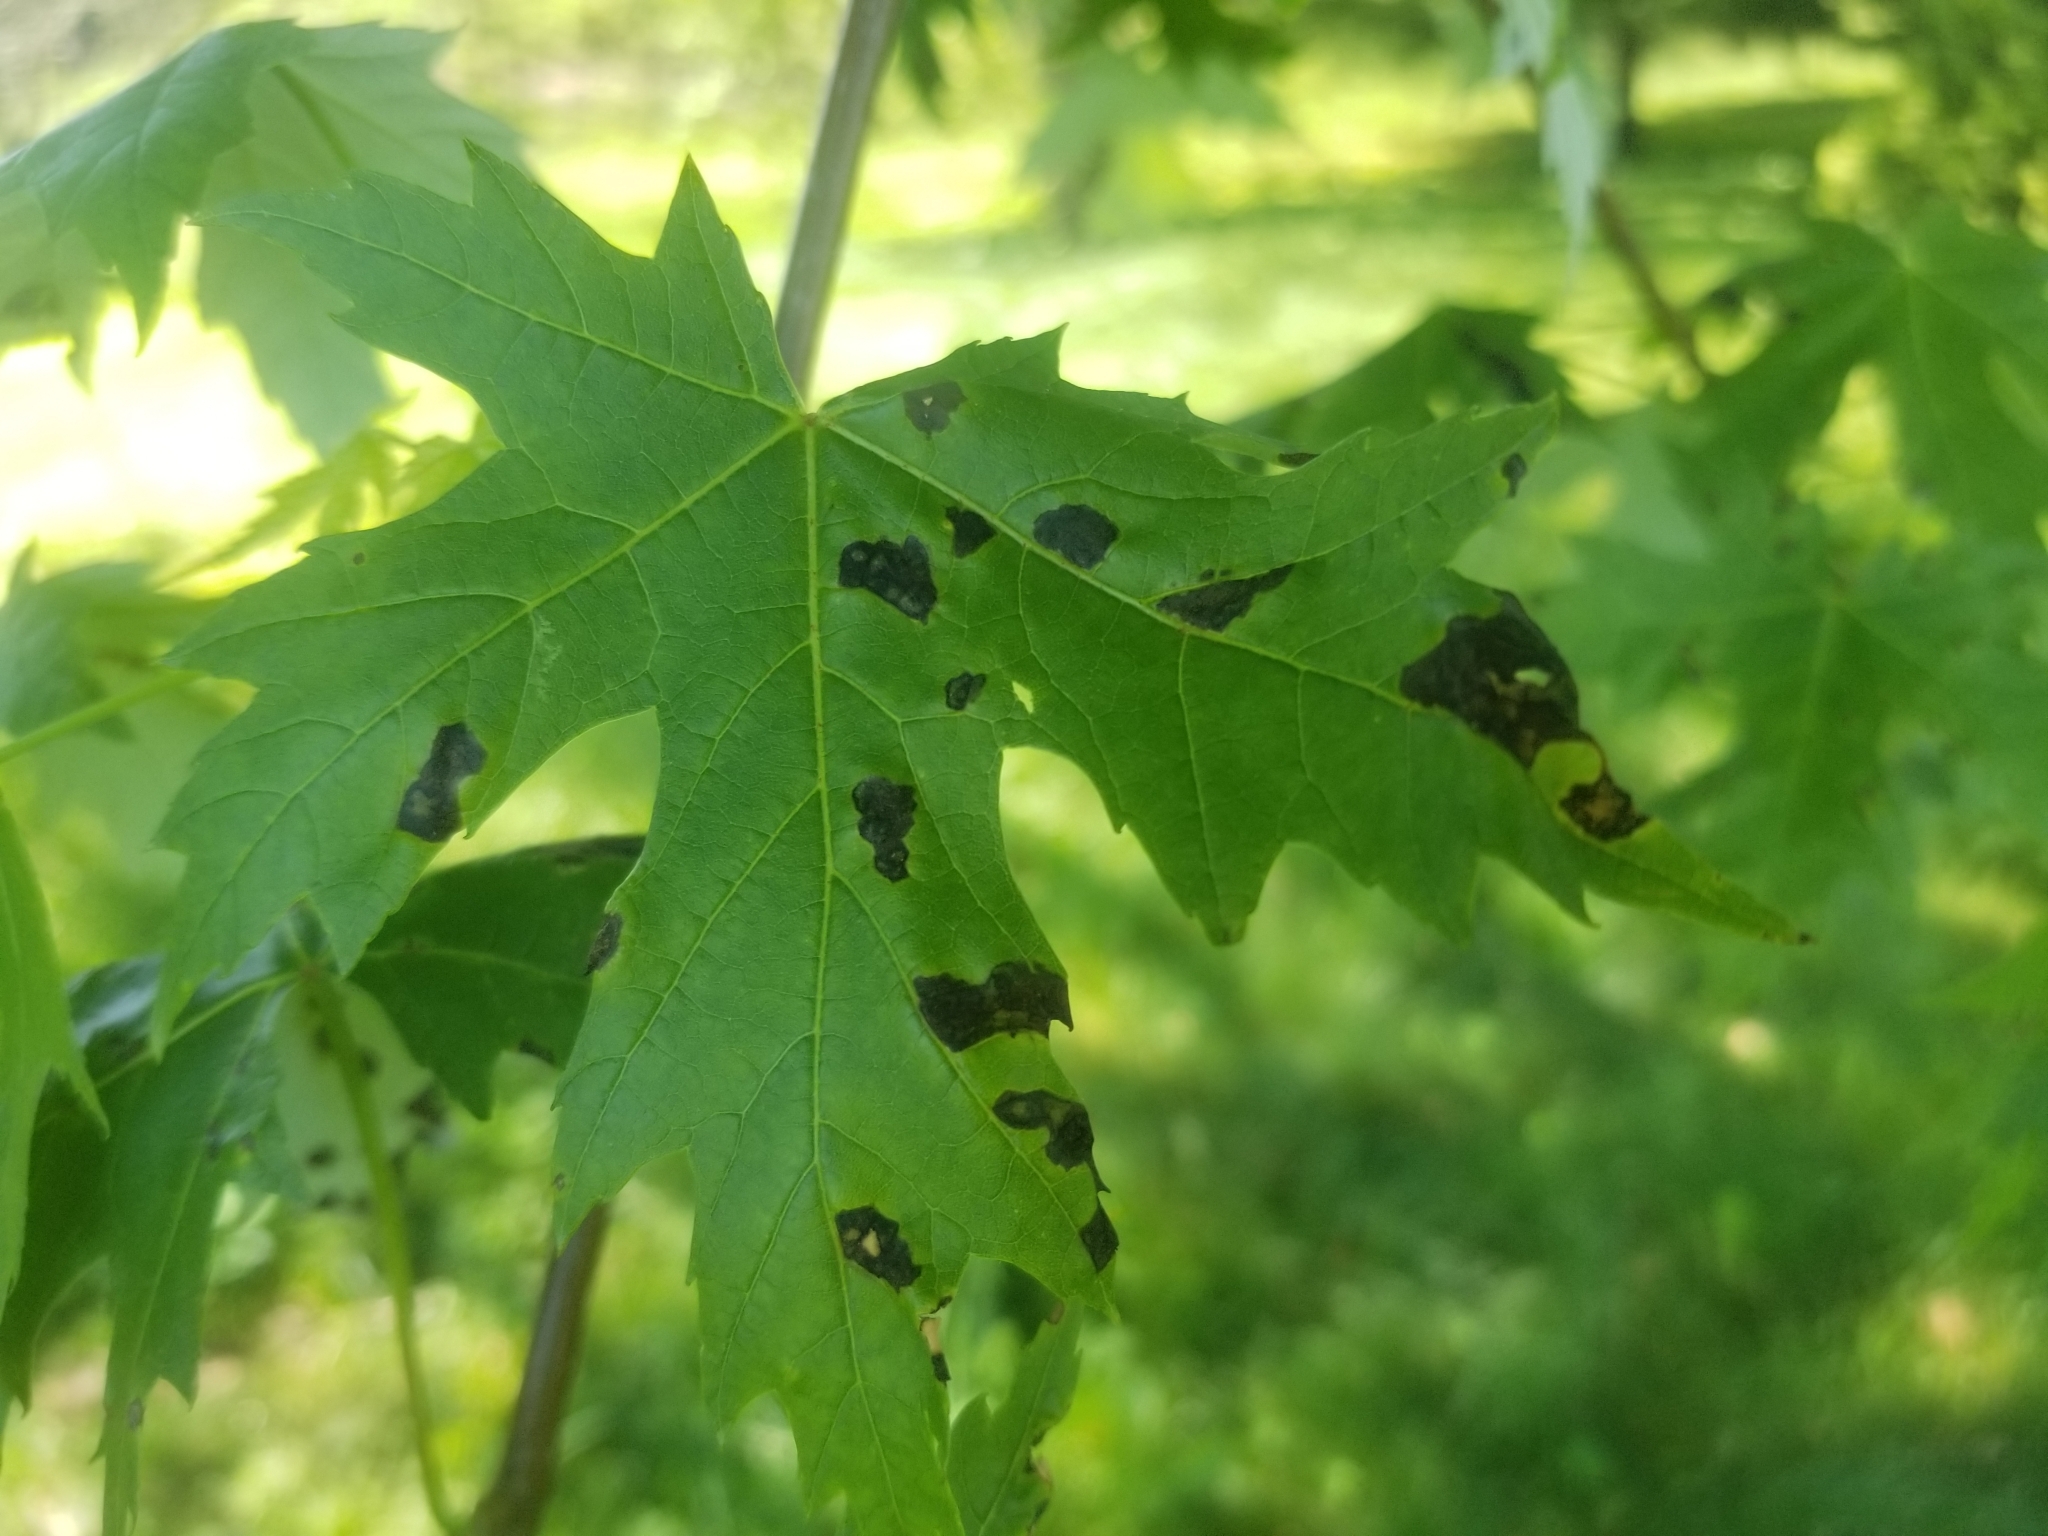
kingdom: Fungi
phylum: Ascomycota
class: Leotiomycetes
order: Rhytismatales
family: Rhytismataceae
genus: Rhytisma
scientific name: Rhytisma
